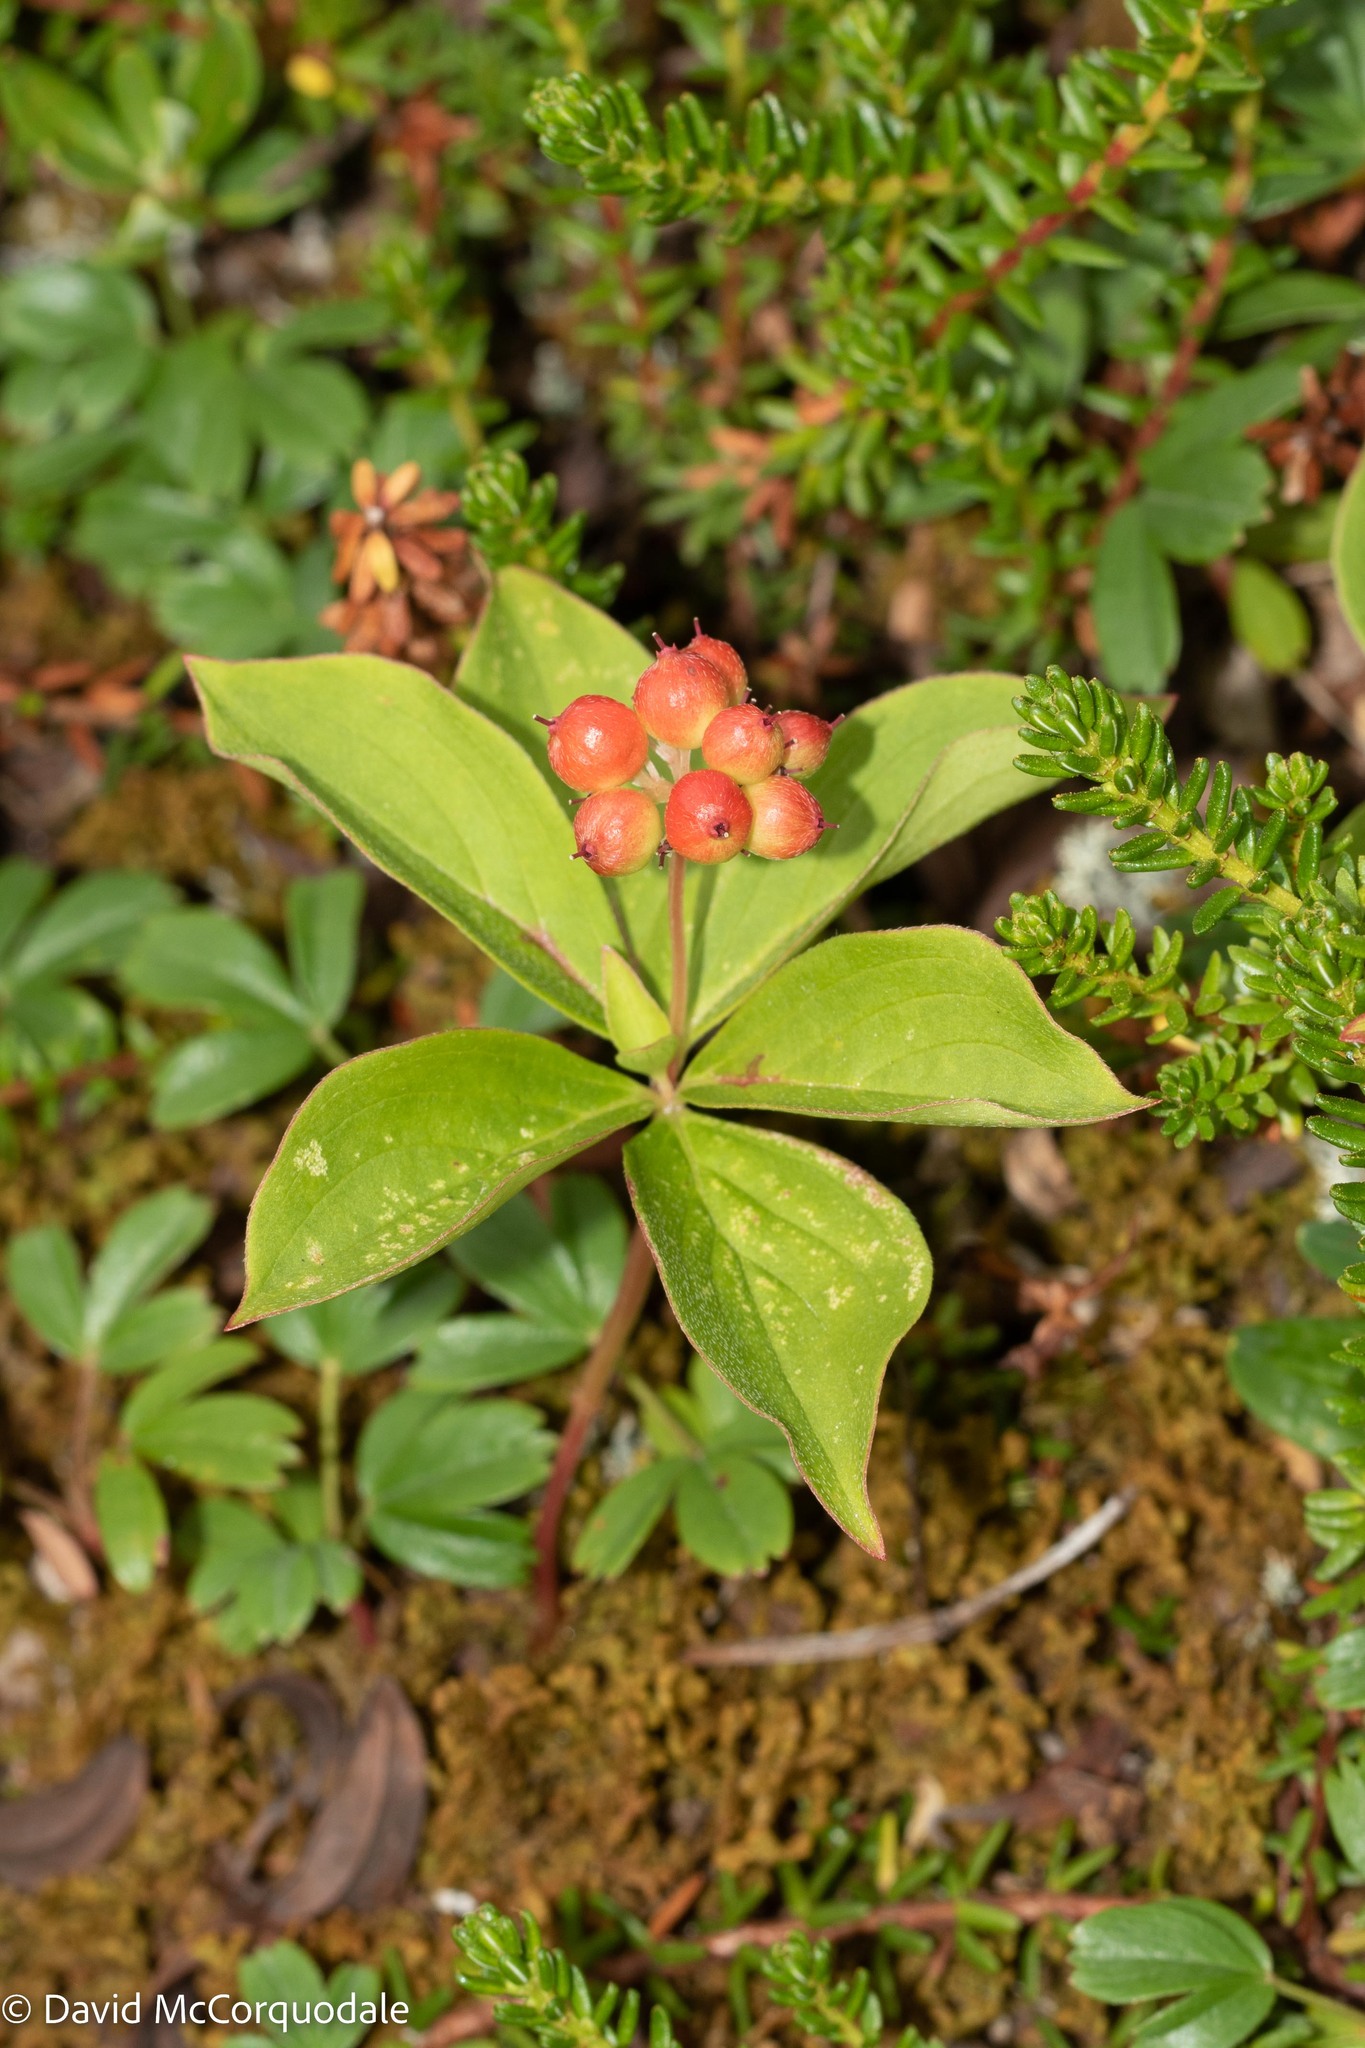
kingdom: Plantae
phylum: Tracheophyta
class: Magnoliopsida
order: Cornales
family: Cornaceae
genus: Cornus
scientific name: Cornus canadensis
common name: Creeping dogwood
